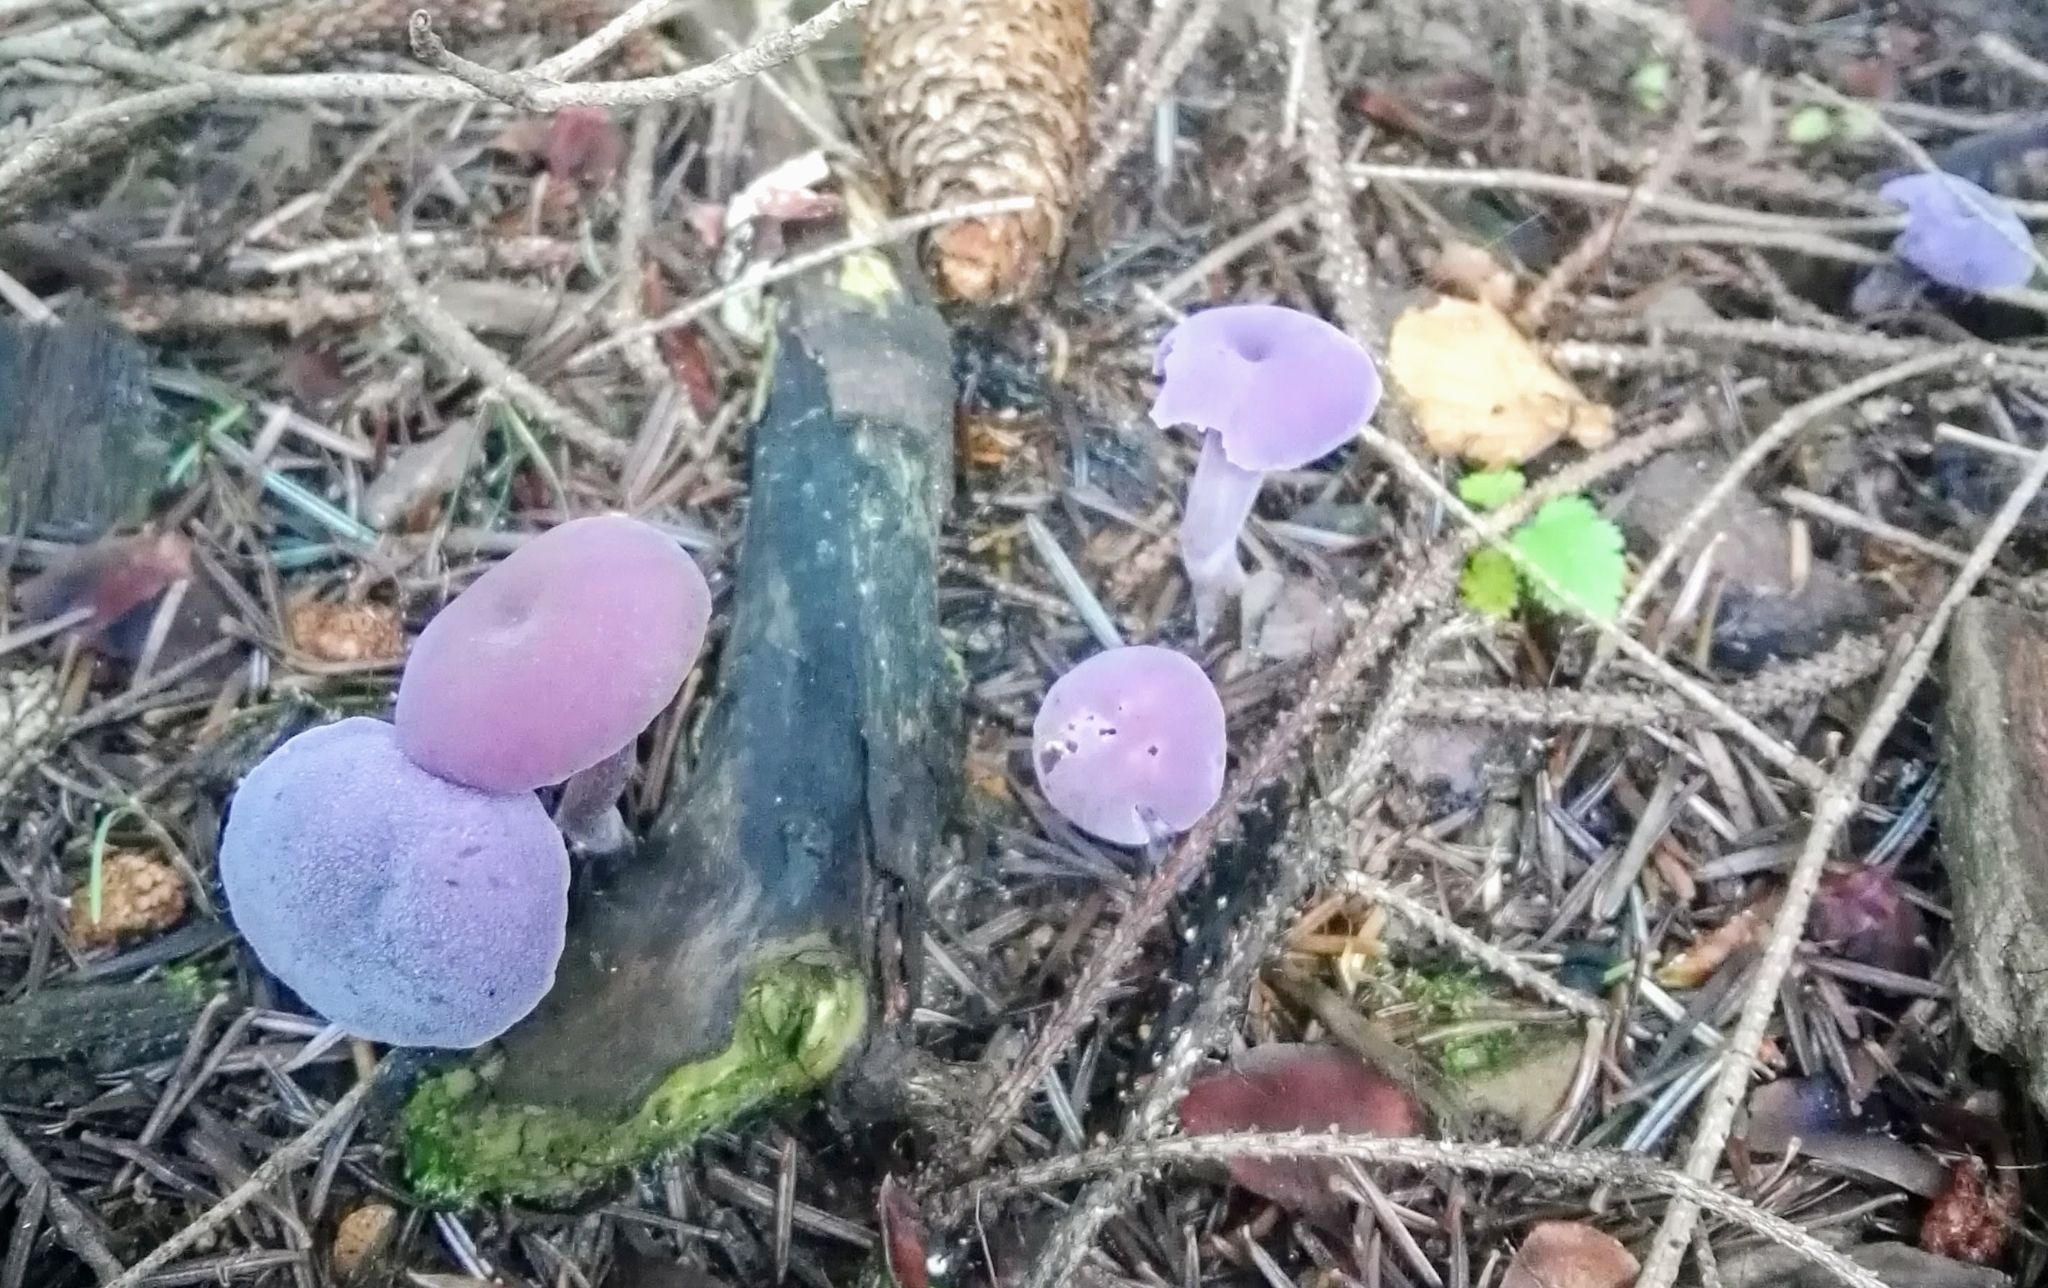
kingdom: Fungi
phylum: Basidiomycota
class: Agaricomycetes
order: Agaricales
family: Hydnangiaceae
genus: Laccaria
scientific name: Laccaria amethystina
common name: Amethyst deceiver
